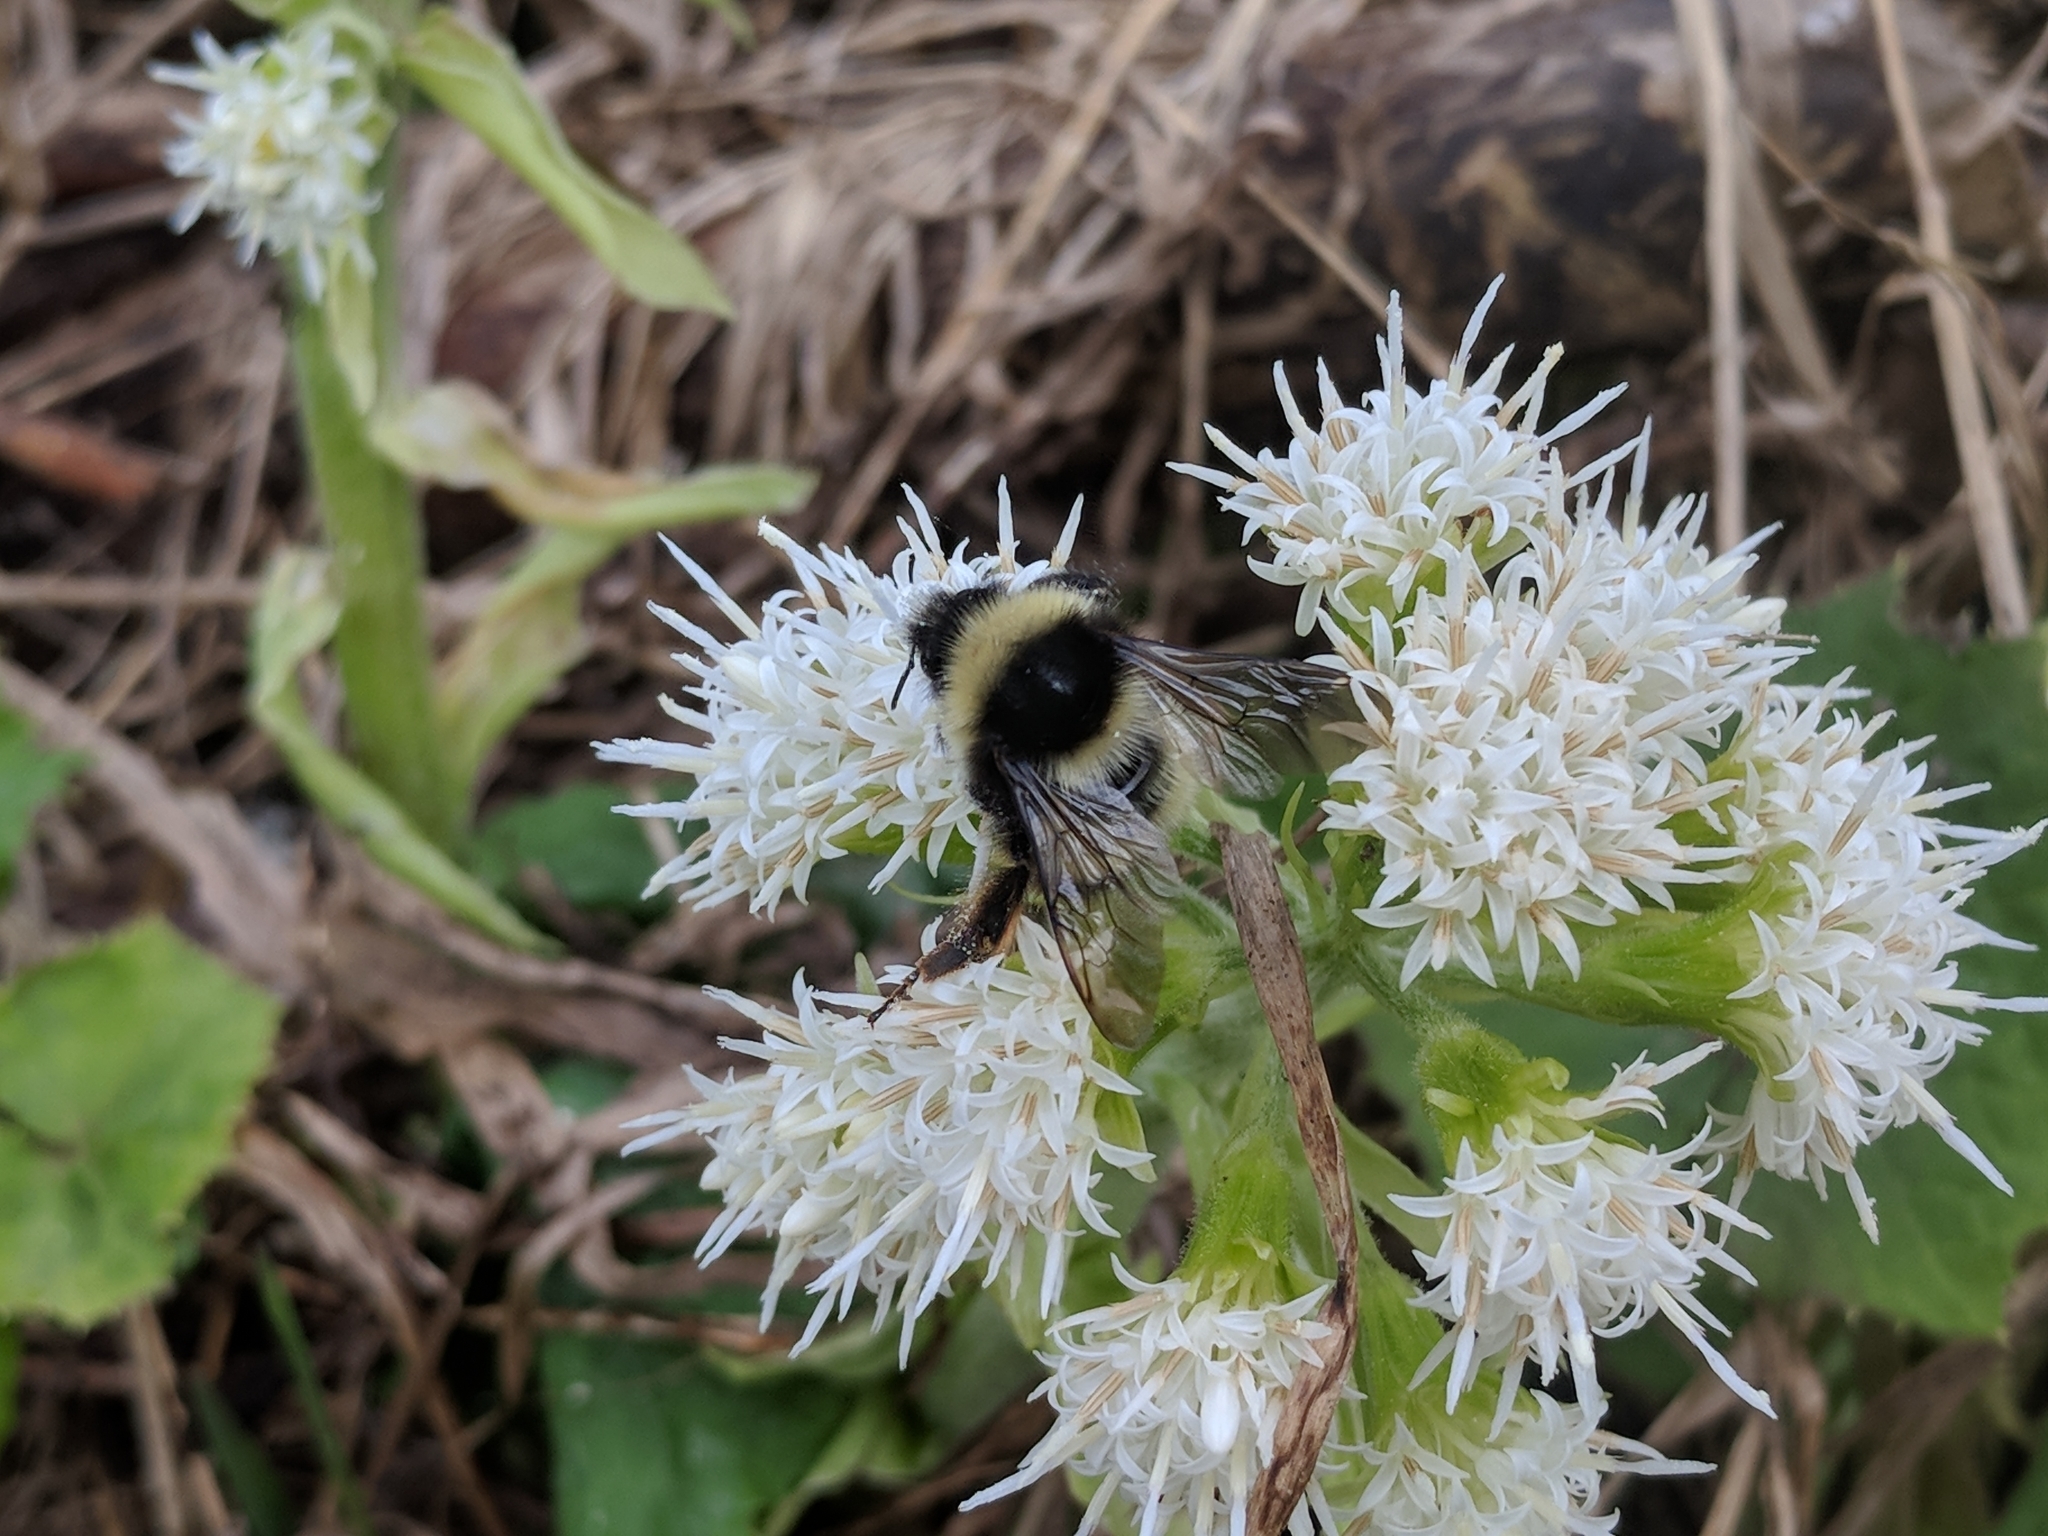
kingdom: Plantae
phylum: Tracheophyta
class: Magnoliopsida
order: Asterales
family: Asteraceae
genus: Petasites
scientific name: Petasites albus
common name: White butterbur
